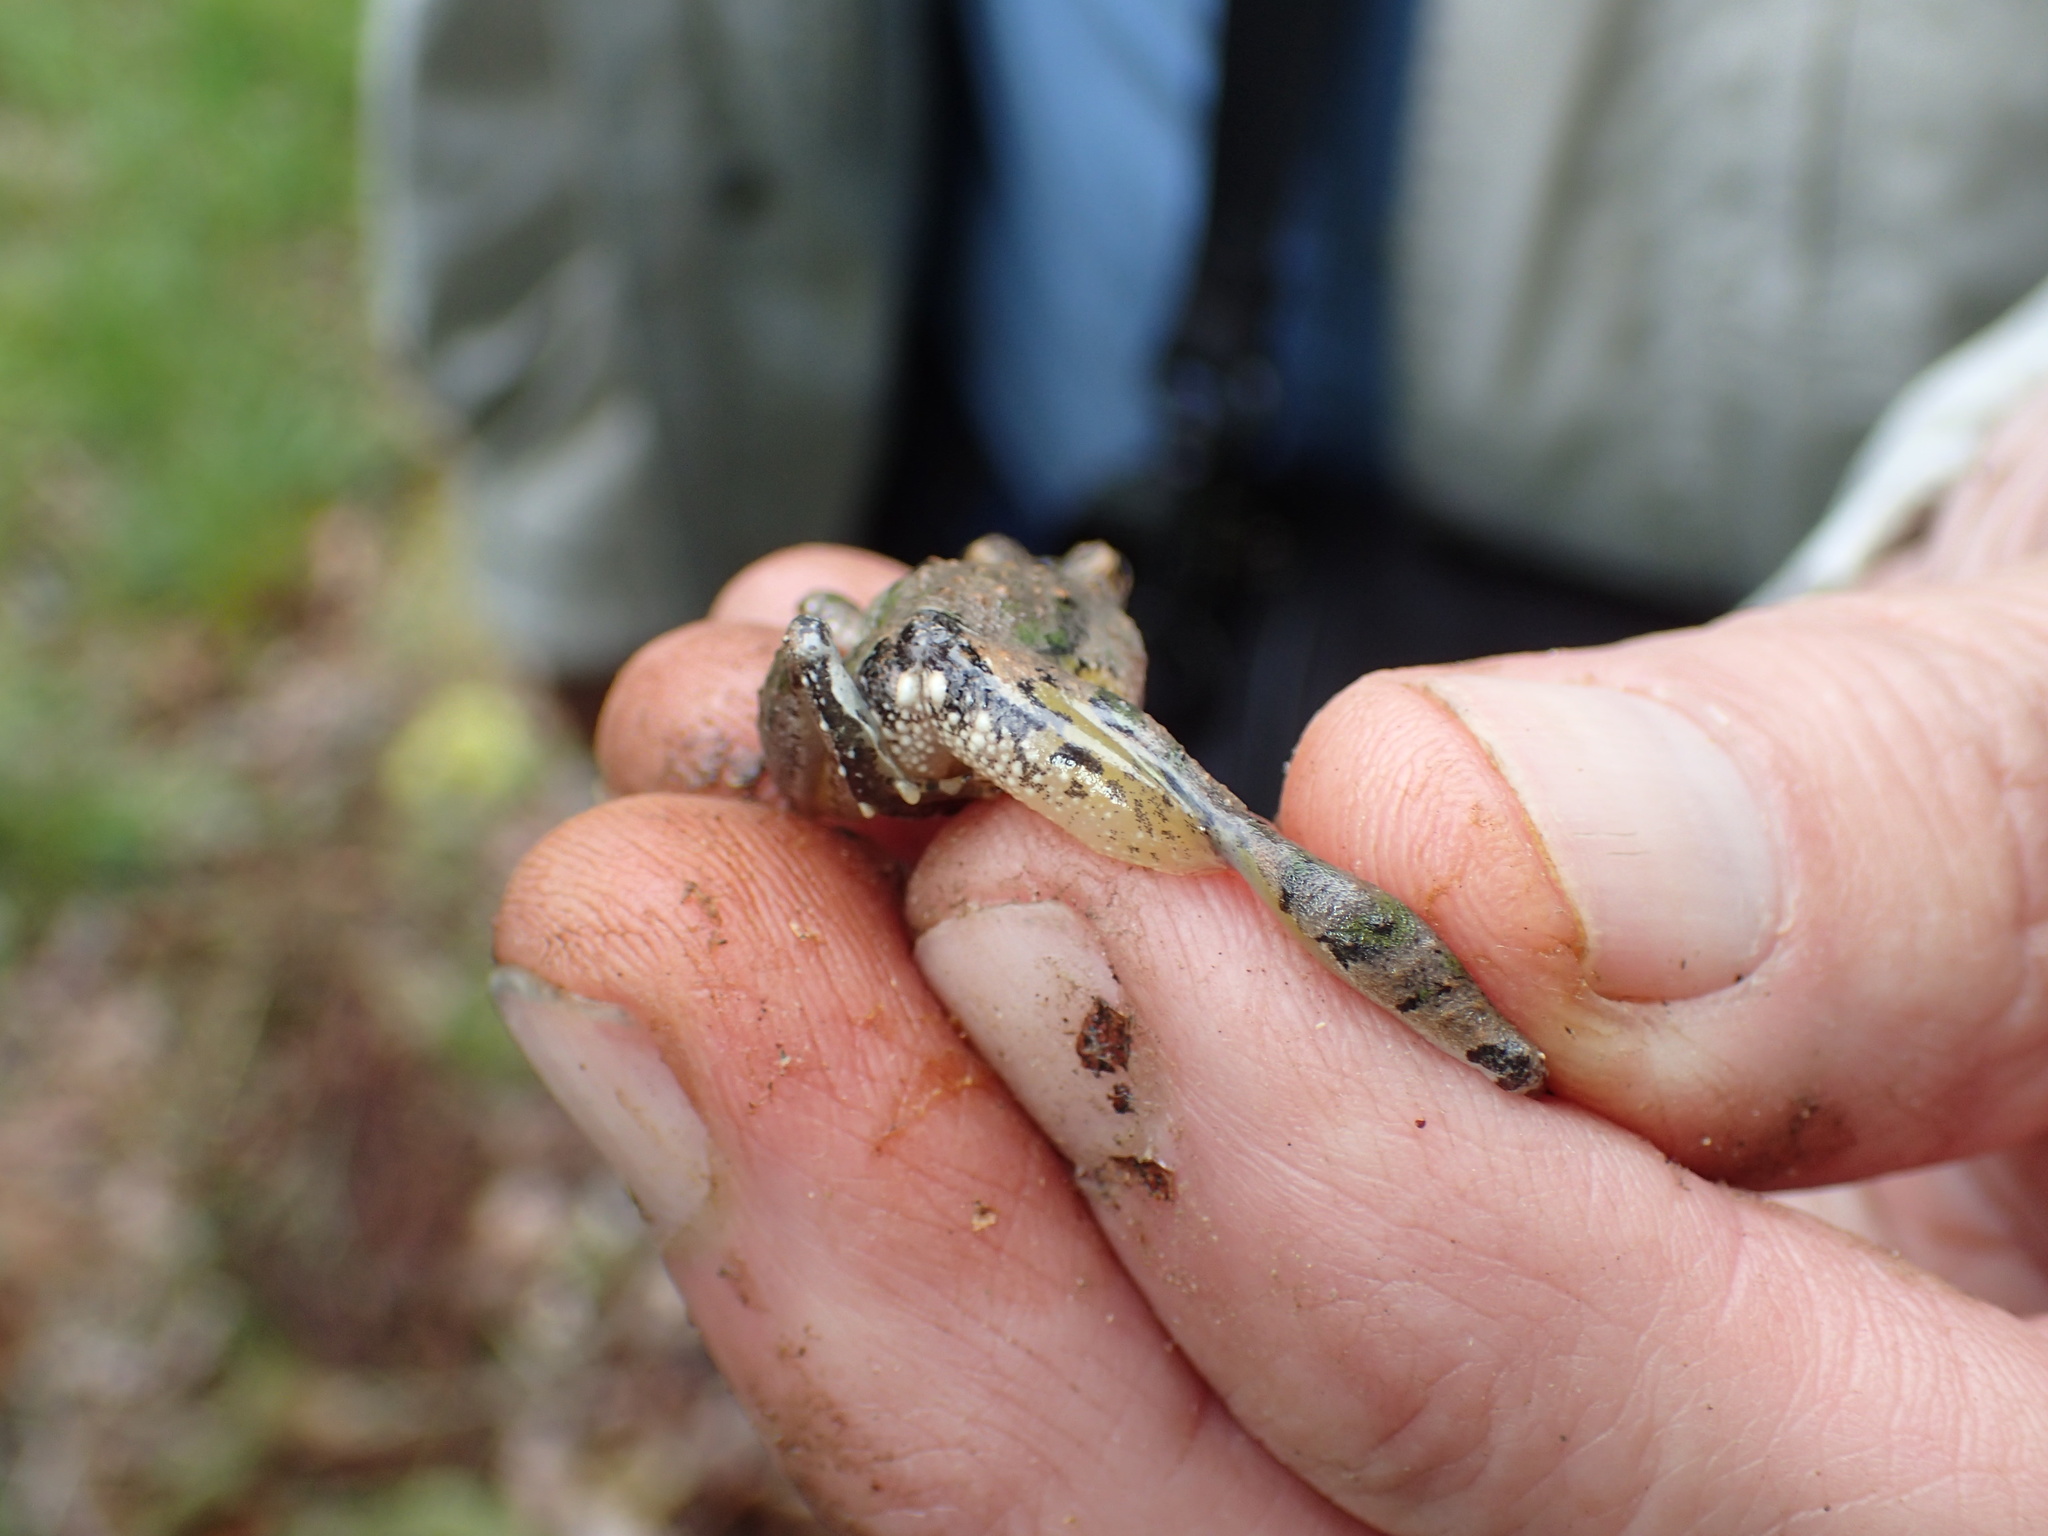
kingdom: Animalia
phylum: Chordata
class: Amphibia
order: Anura
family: Hylidae
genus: Acris
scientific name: Acris crepitans
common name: Northern cricket frog
